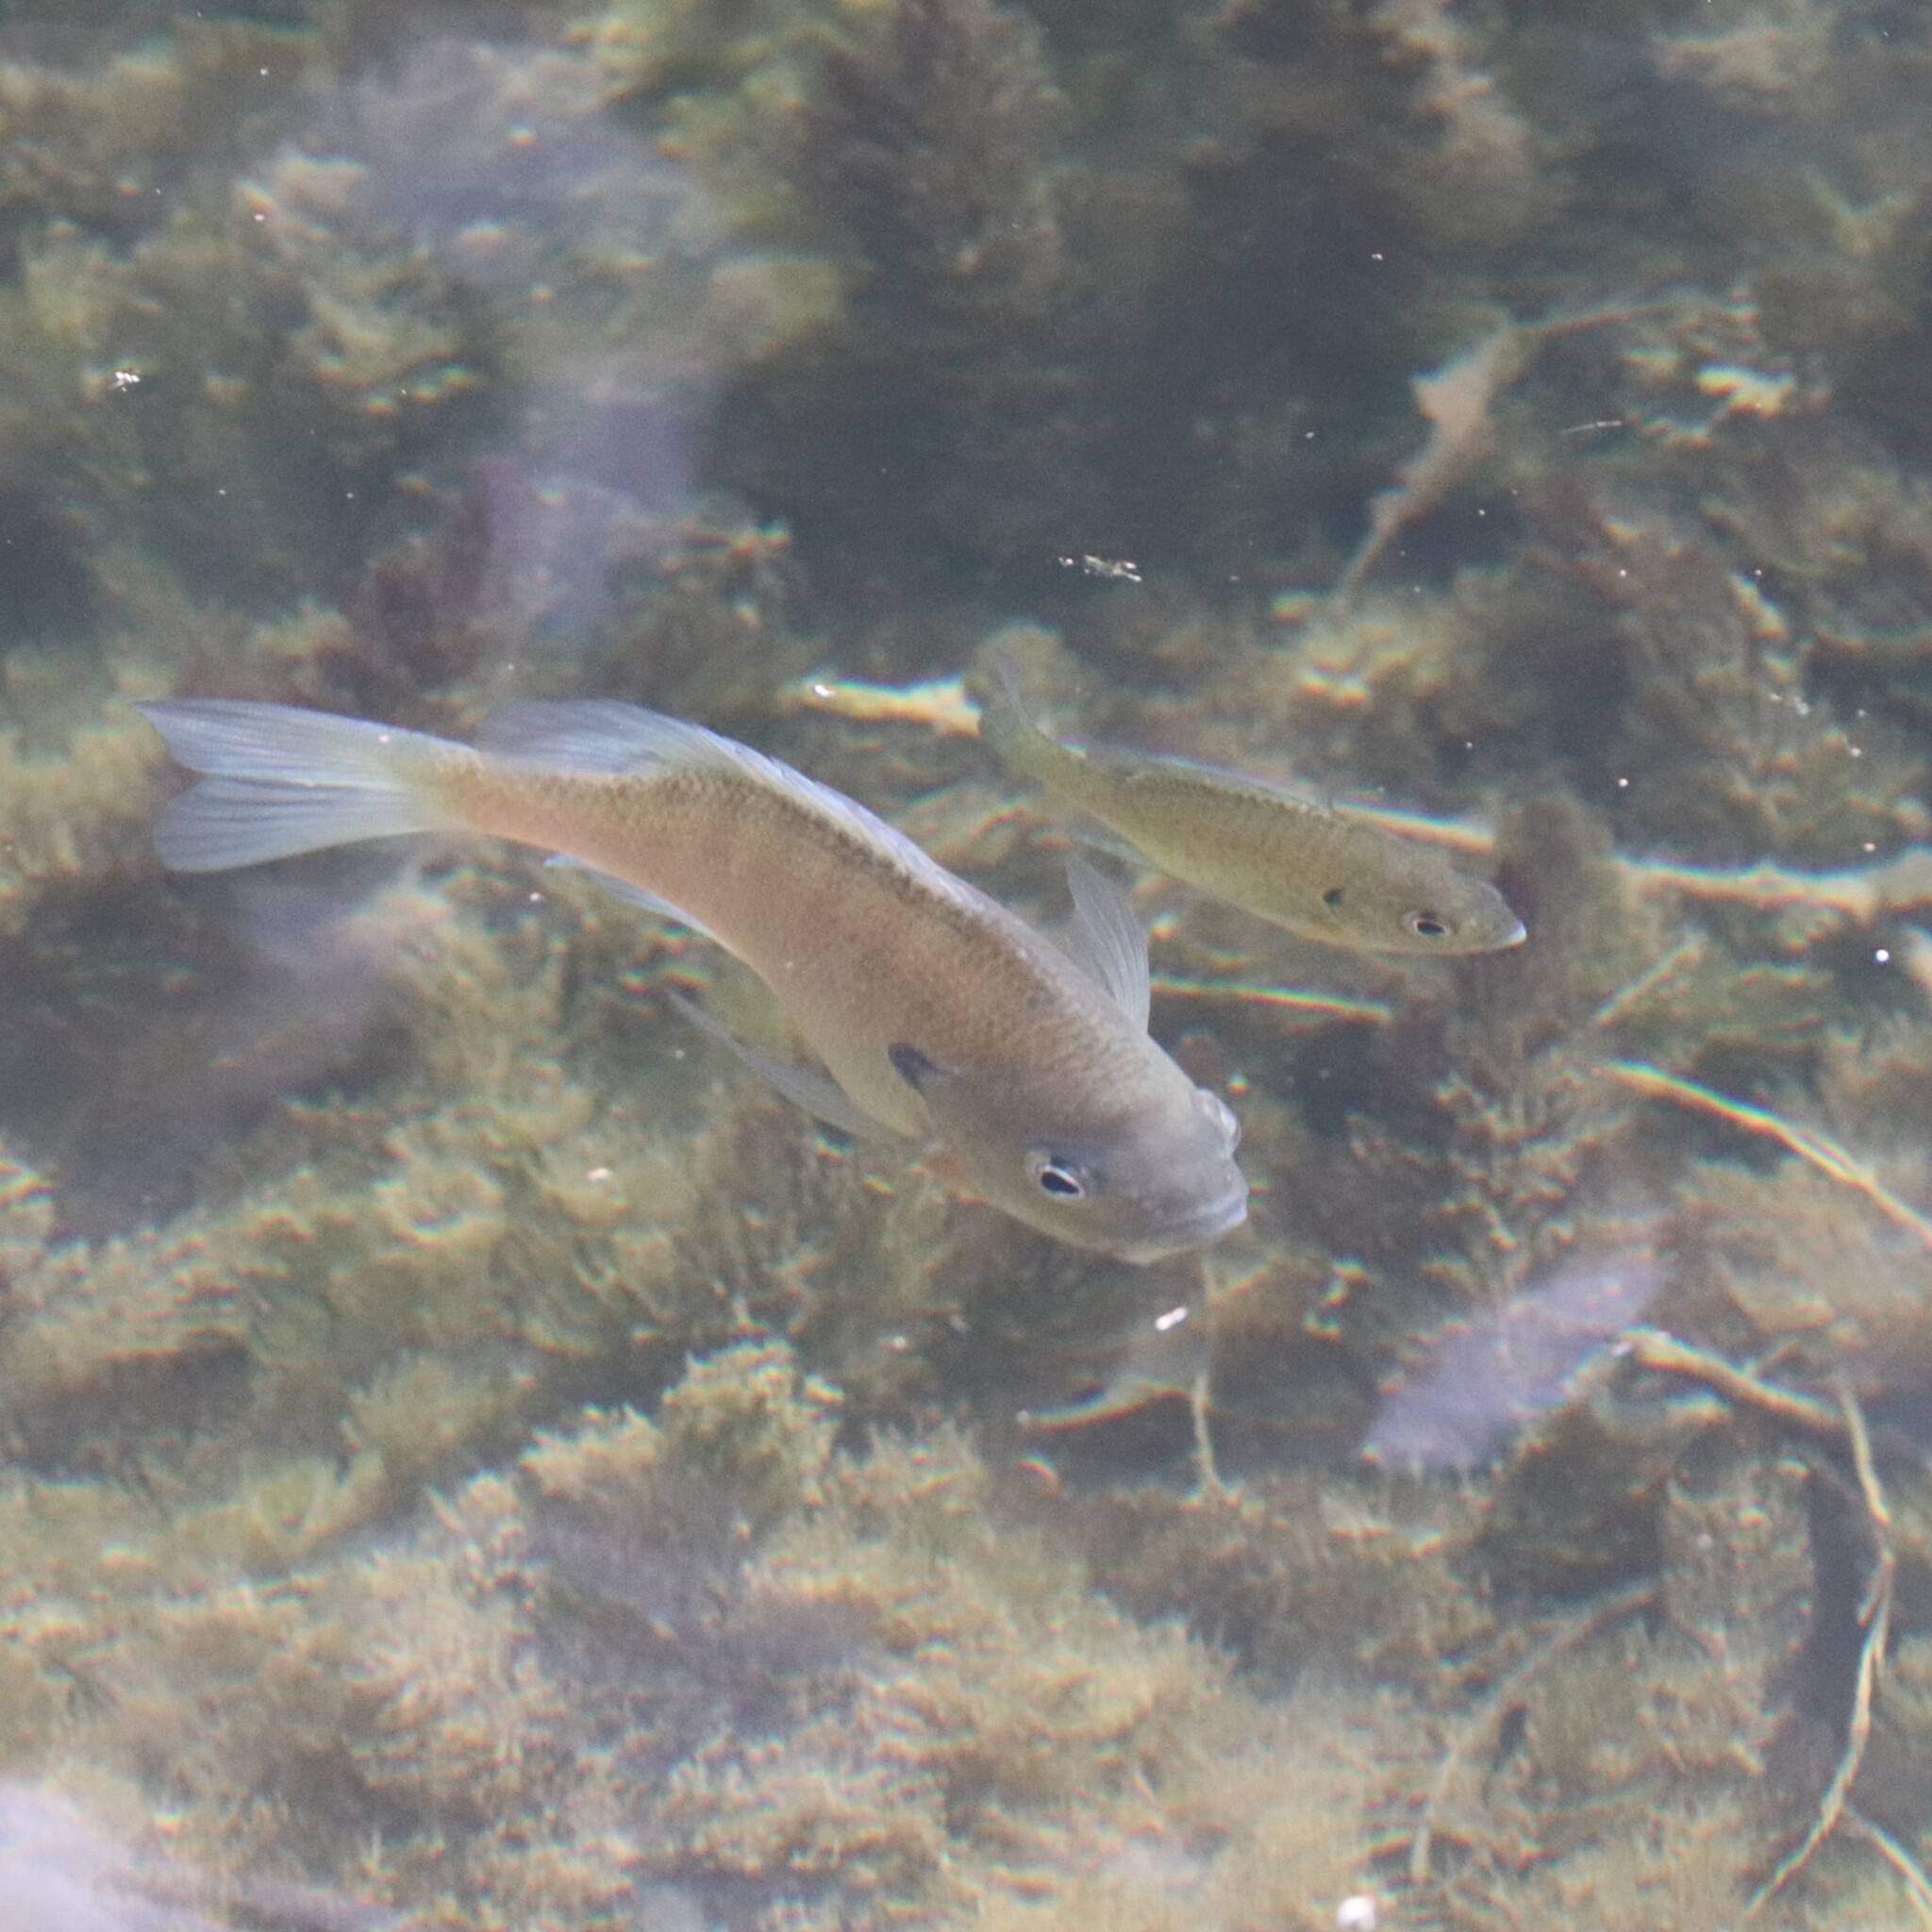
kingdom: Animalia
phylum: Chordata
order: Perciformes
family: Centrarchidae
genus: Lepomis
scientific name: Lepomis macrochirus
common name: Bluegill
